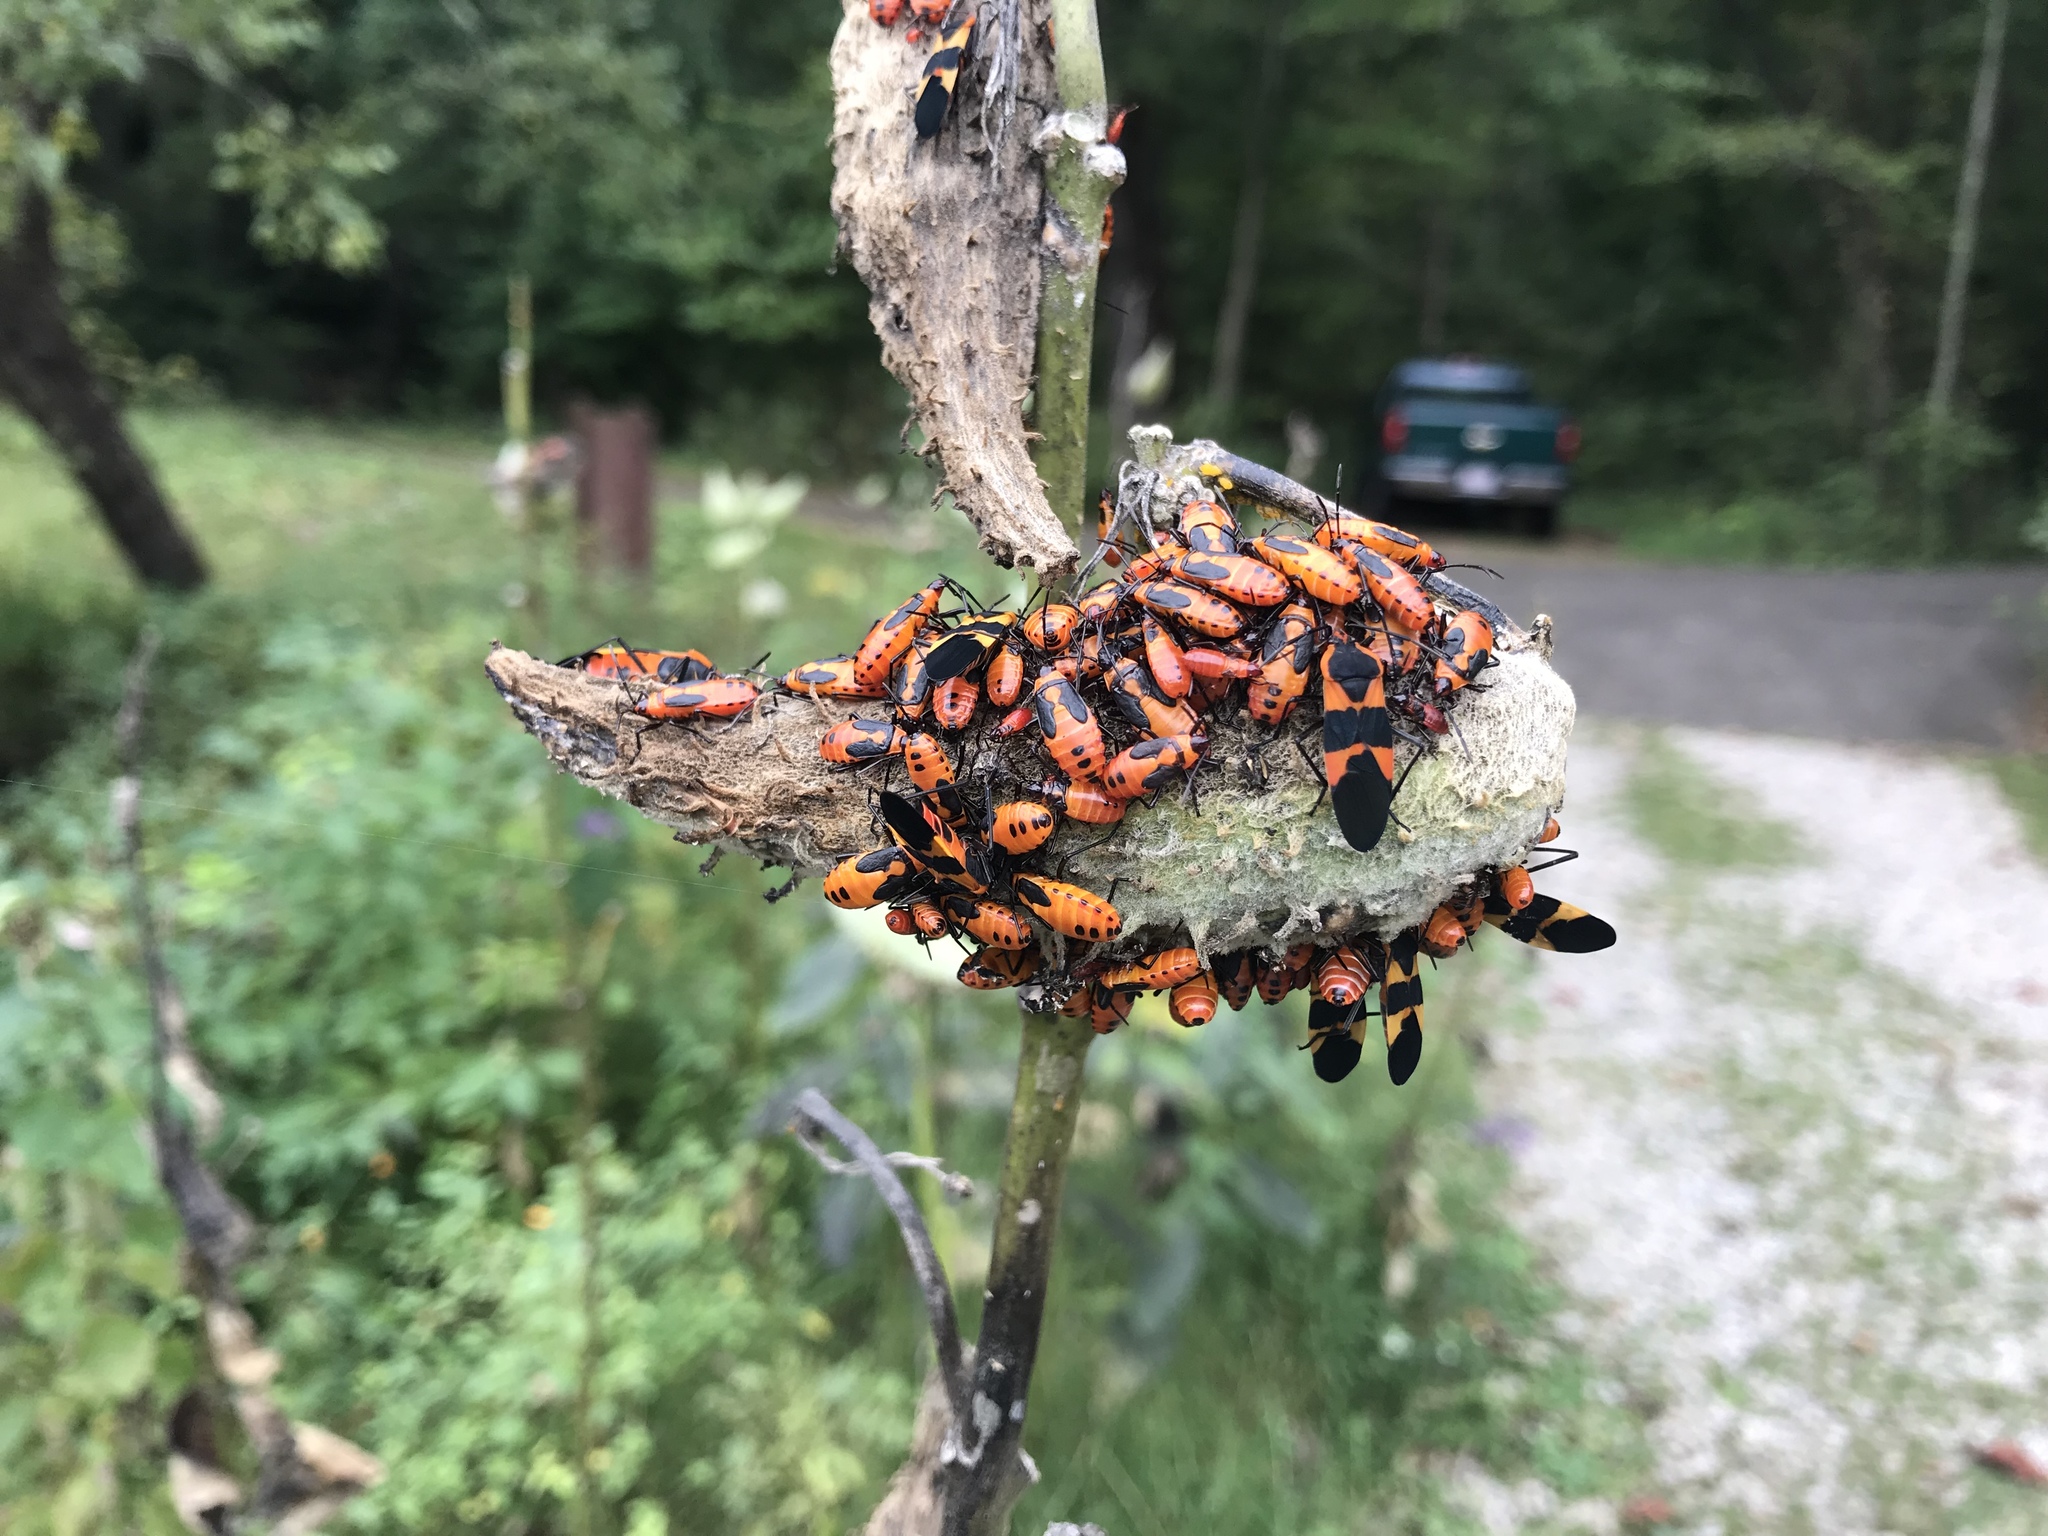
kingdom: Animalia
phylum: Arthropoda
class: Insecta
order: Hemiptera
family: Lygaeidae
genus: Oncopeltus
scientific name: Oncopeltus fasciatus
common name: Large milkweed bug
